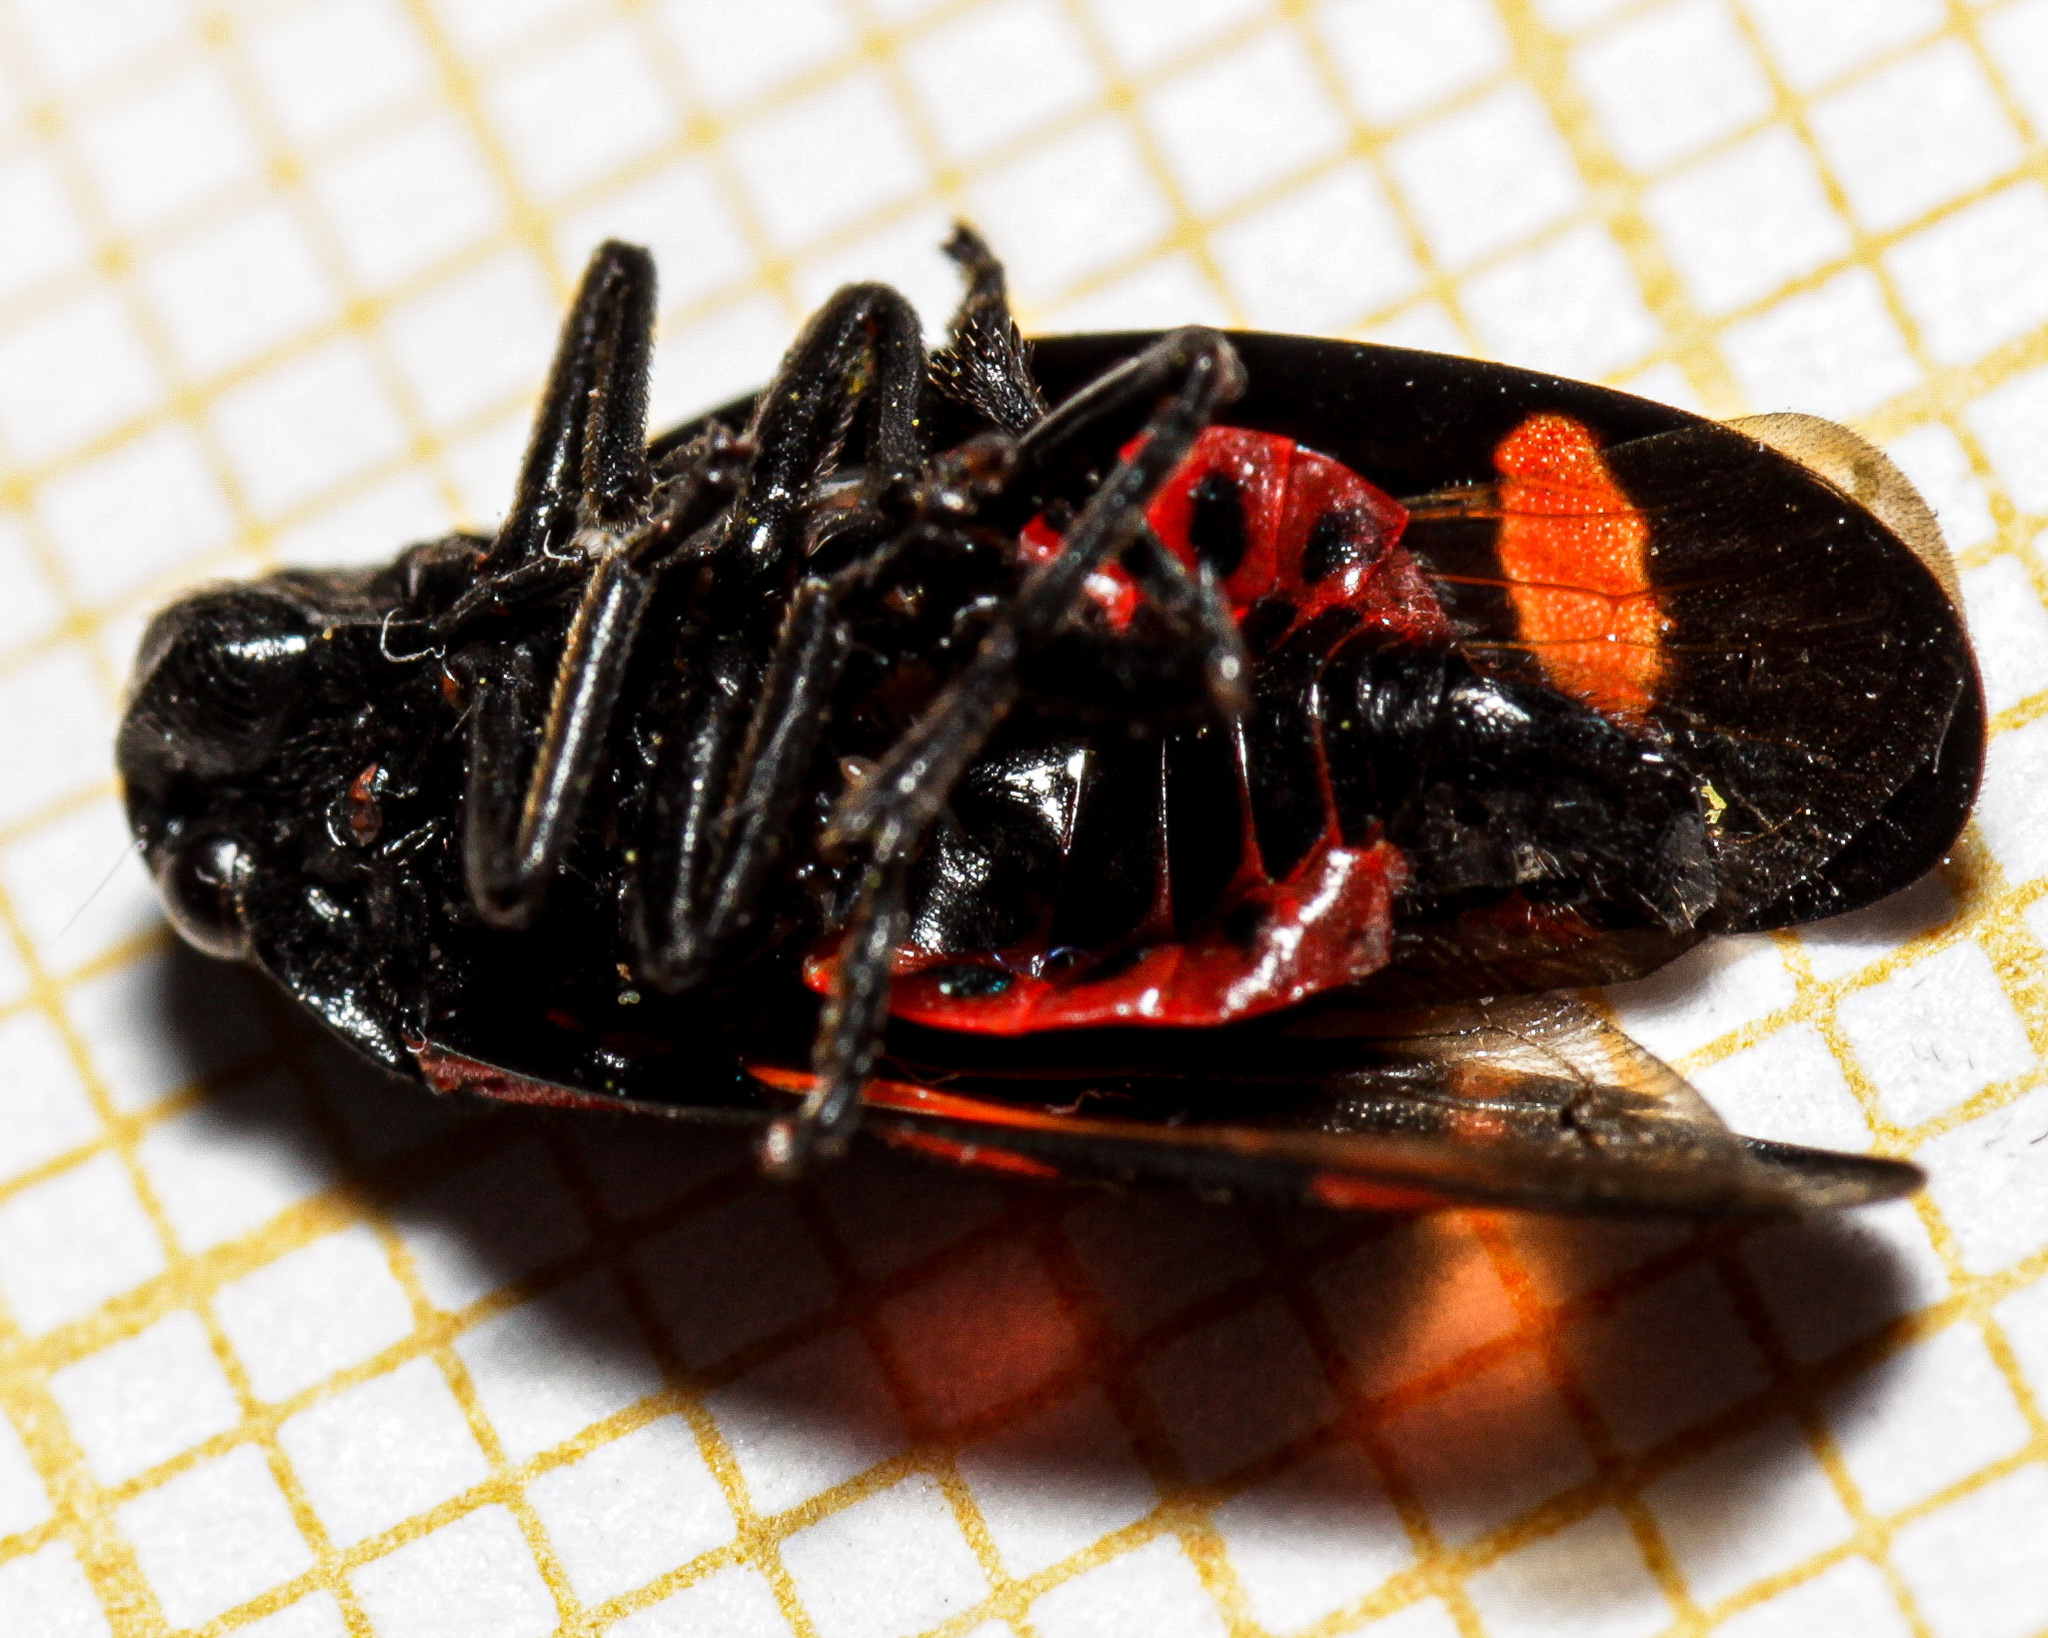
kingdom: Animalia
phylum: Arthropoda
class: Insecta
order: Hemiptera
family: Cercopidae
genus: Cercopis
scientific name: Cercopis sanguinolenta
